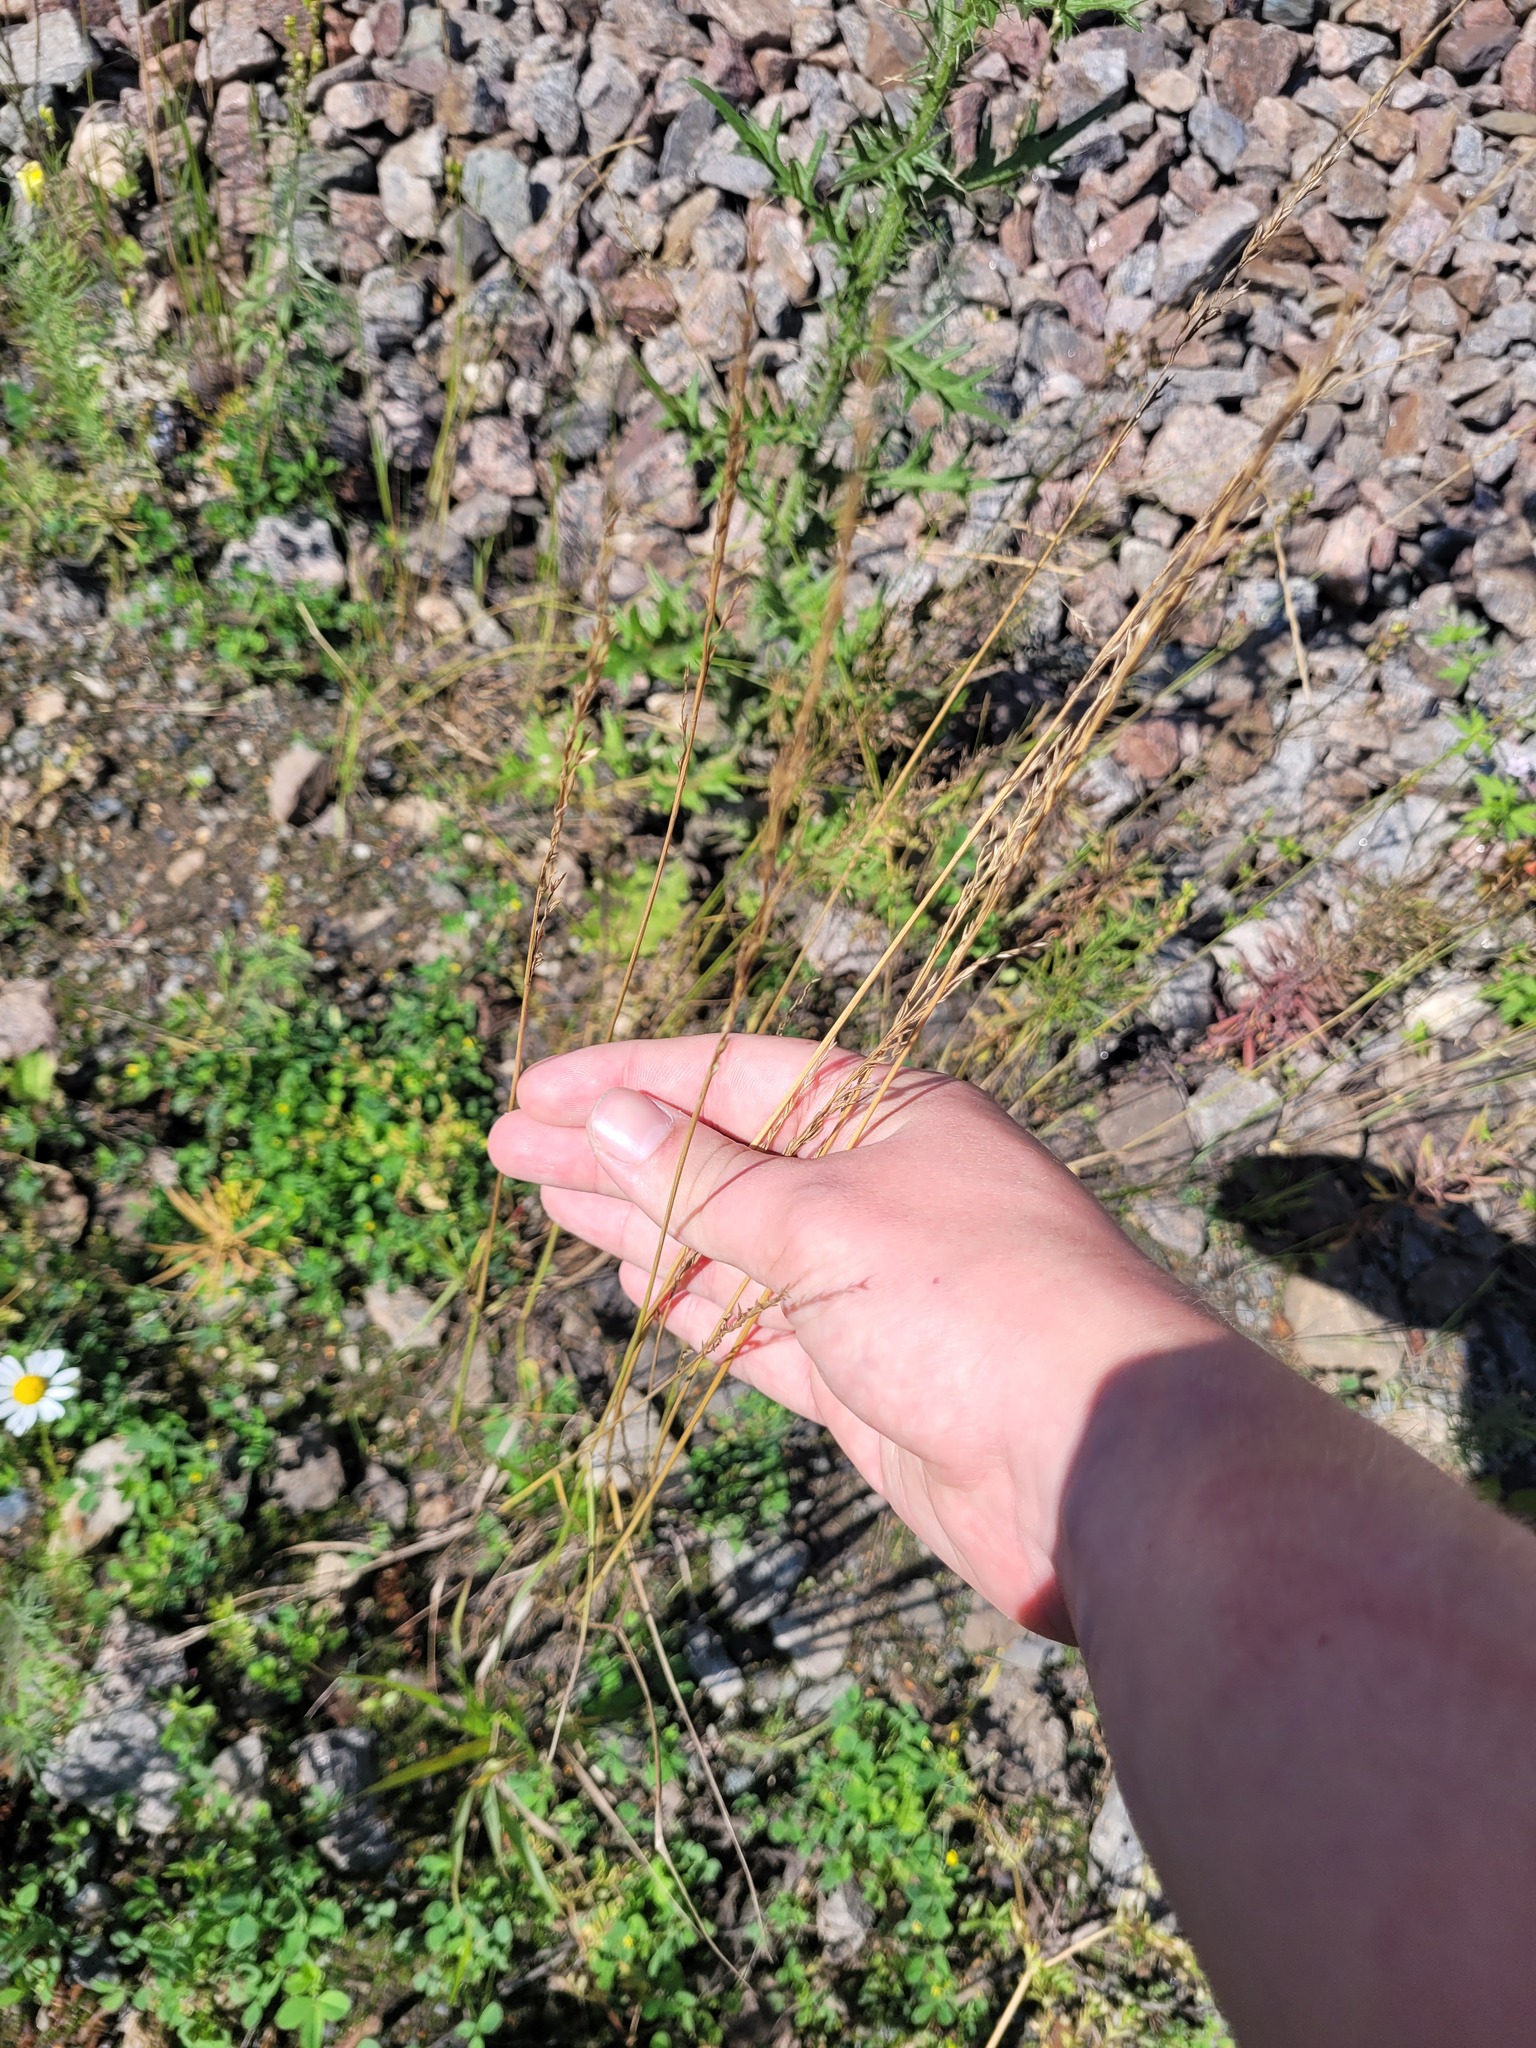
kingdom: Plantae
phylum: Tracheophyta
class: Liliopsida
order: Poales
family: Poaceae
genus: Lolium
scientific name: Lolium pratense
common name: Dover grass
